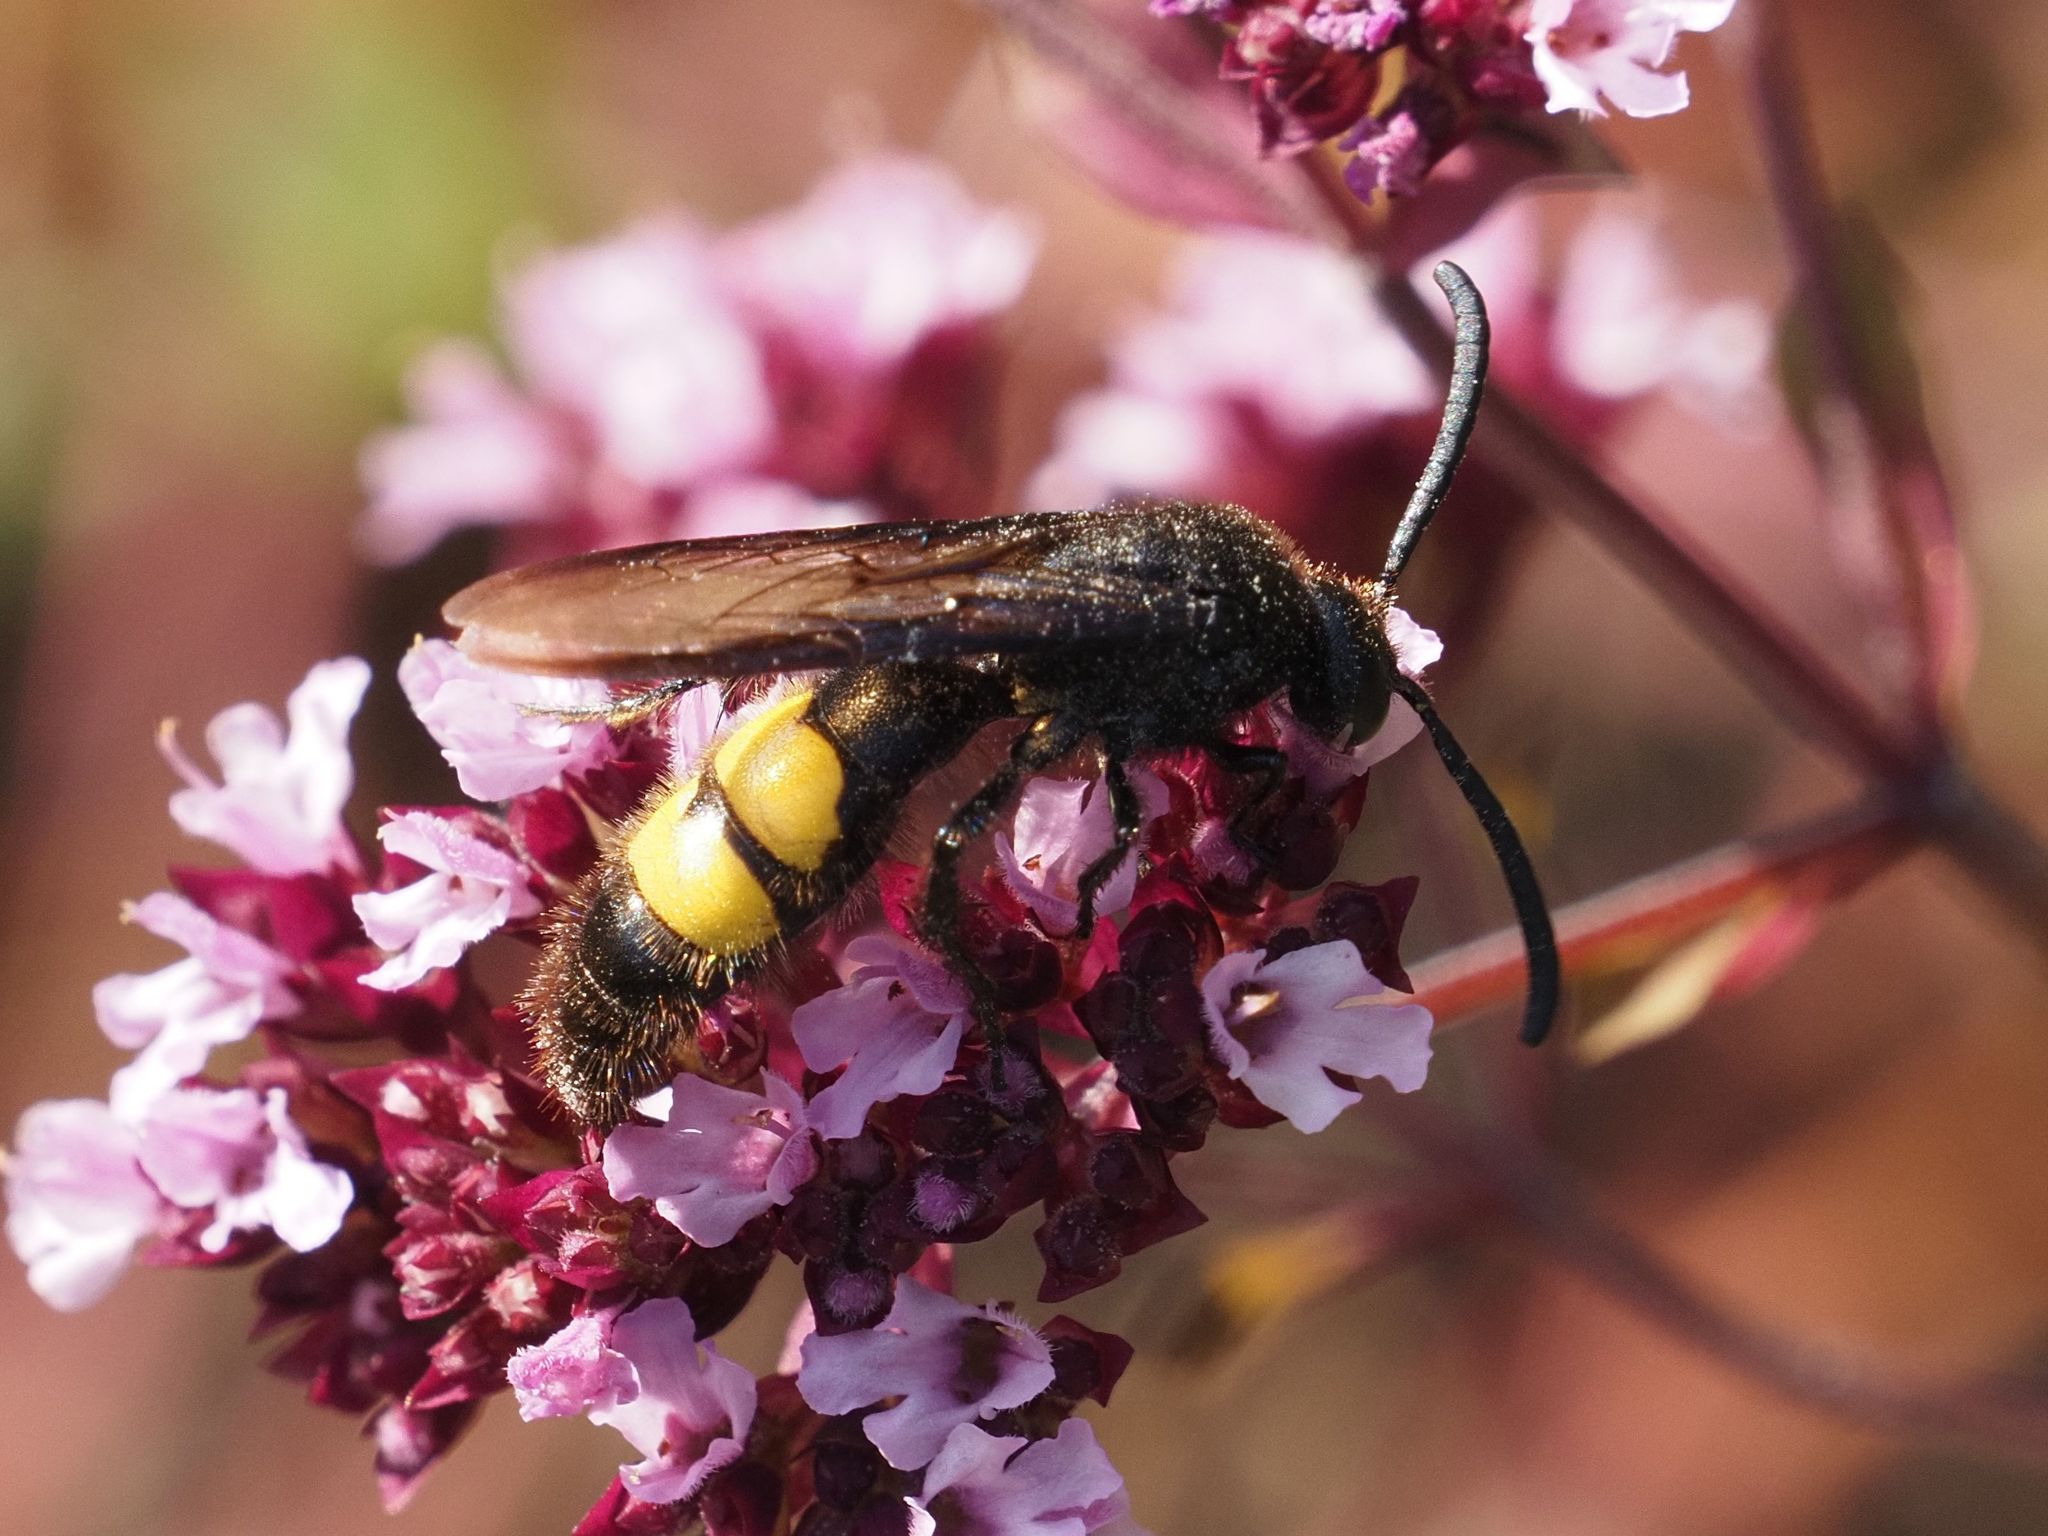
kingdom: Animalia
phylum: Arthropoda
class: Insecta
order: Hymenoptera
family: Scoliidae
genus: Scolia
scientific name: Scolia hirta
